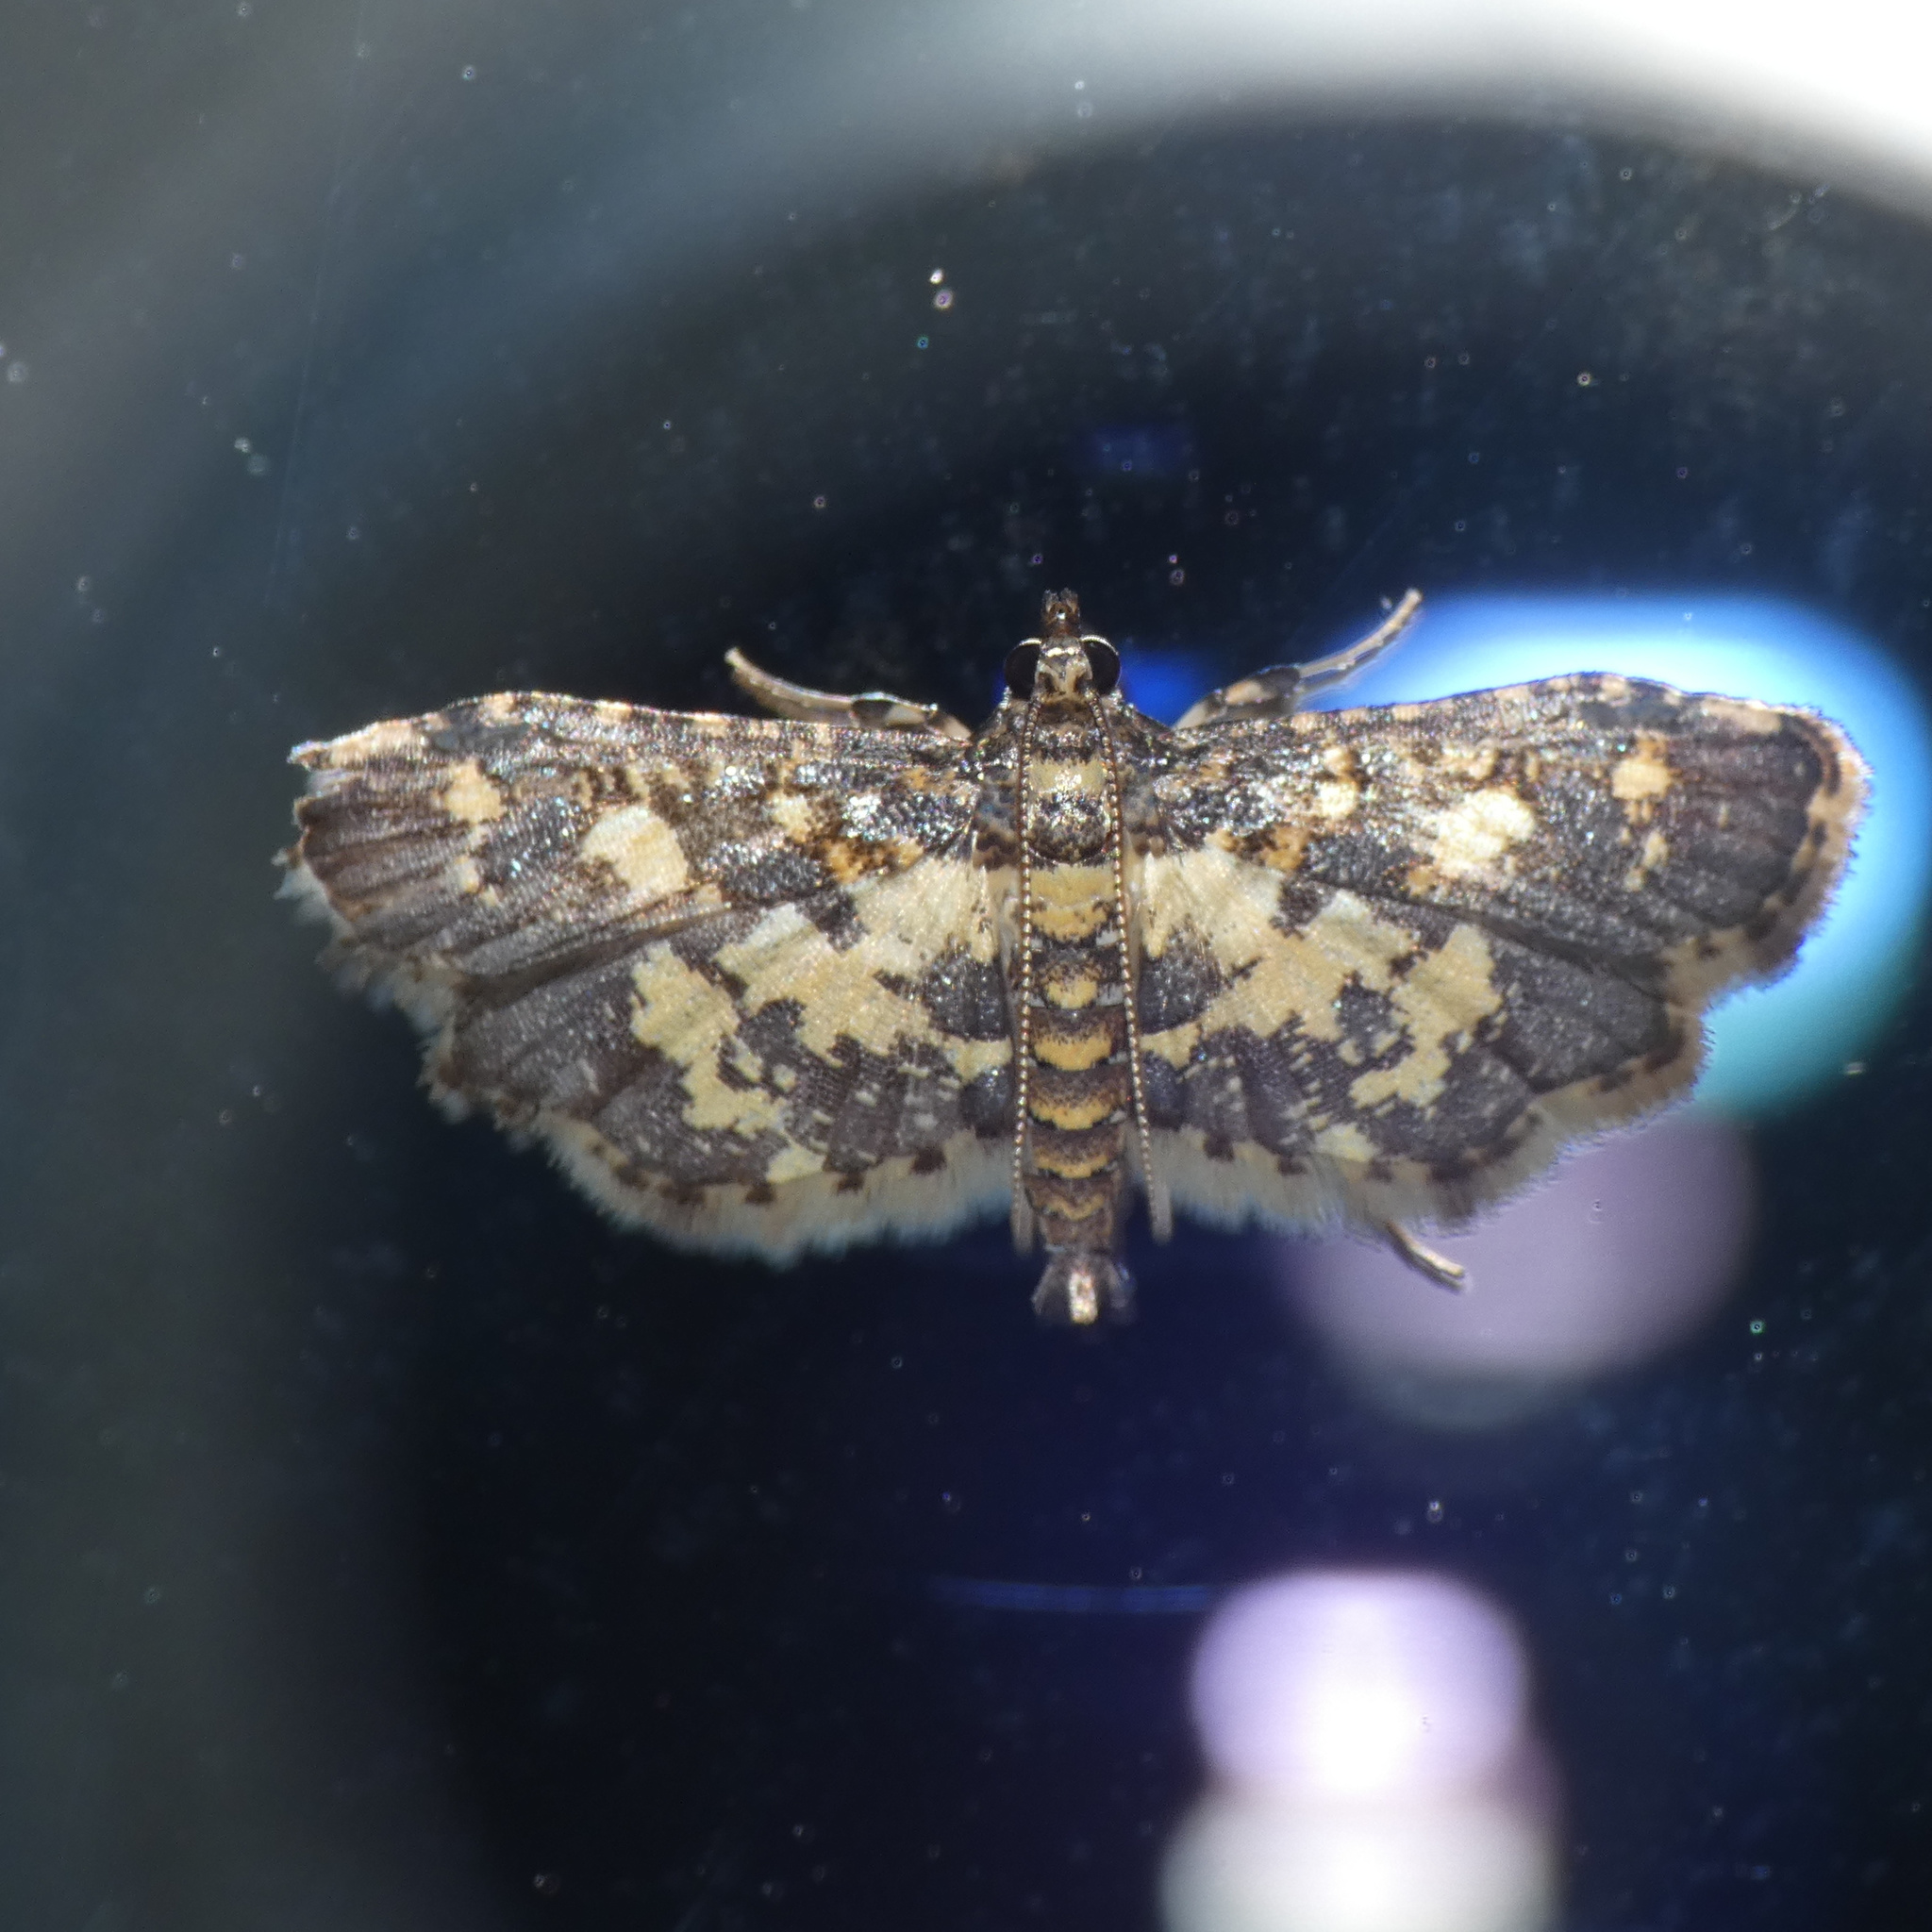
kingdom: Animalia
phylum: Arthropoda
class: Insecta
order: Lepidoptera
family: Crambidae
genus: Eurrhyparodes
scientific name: Eurrhyparodes bracteolalis
